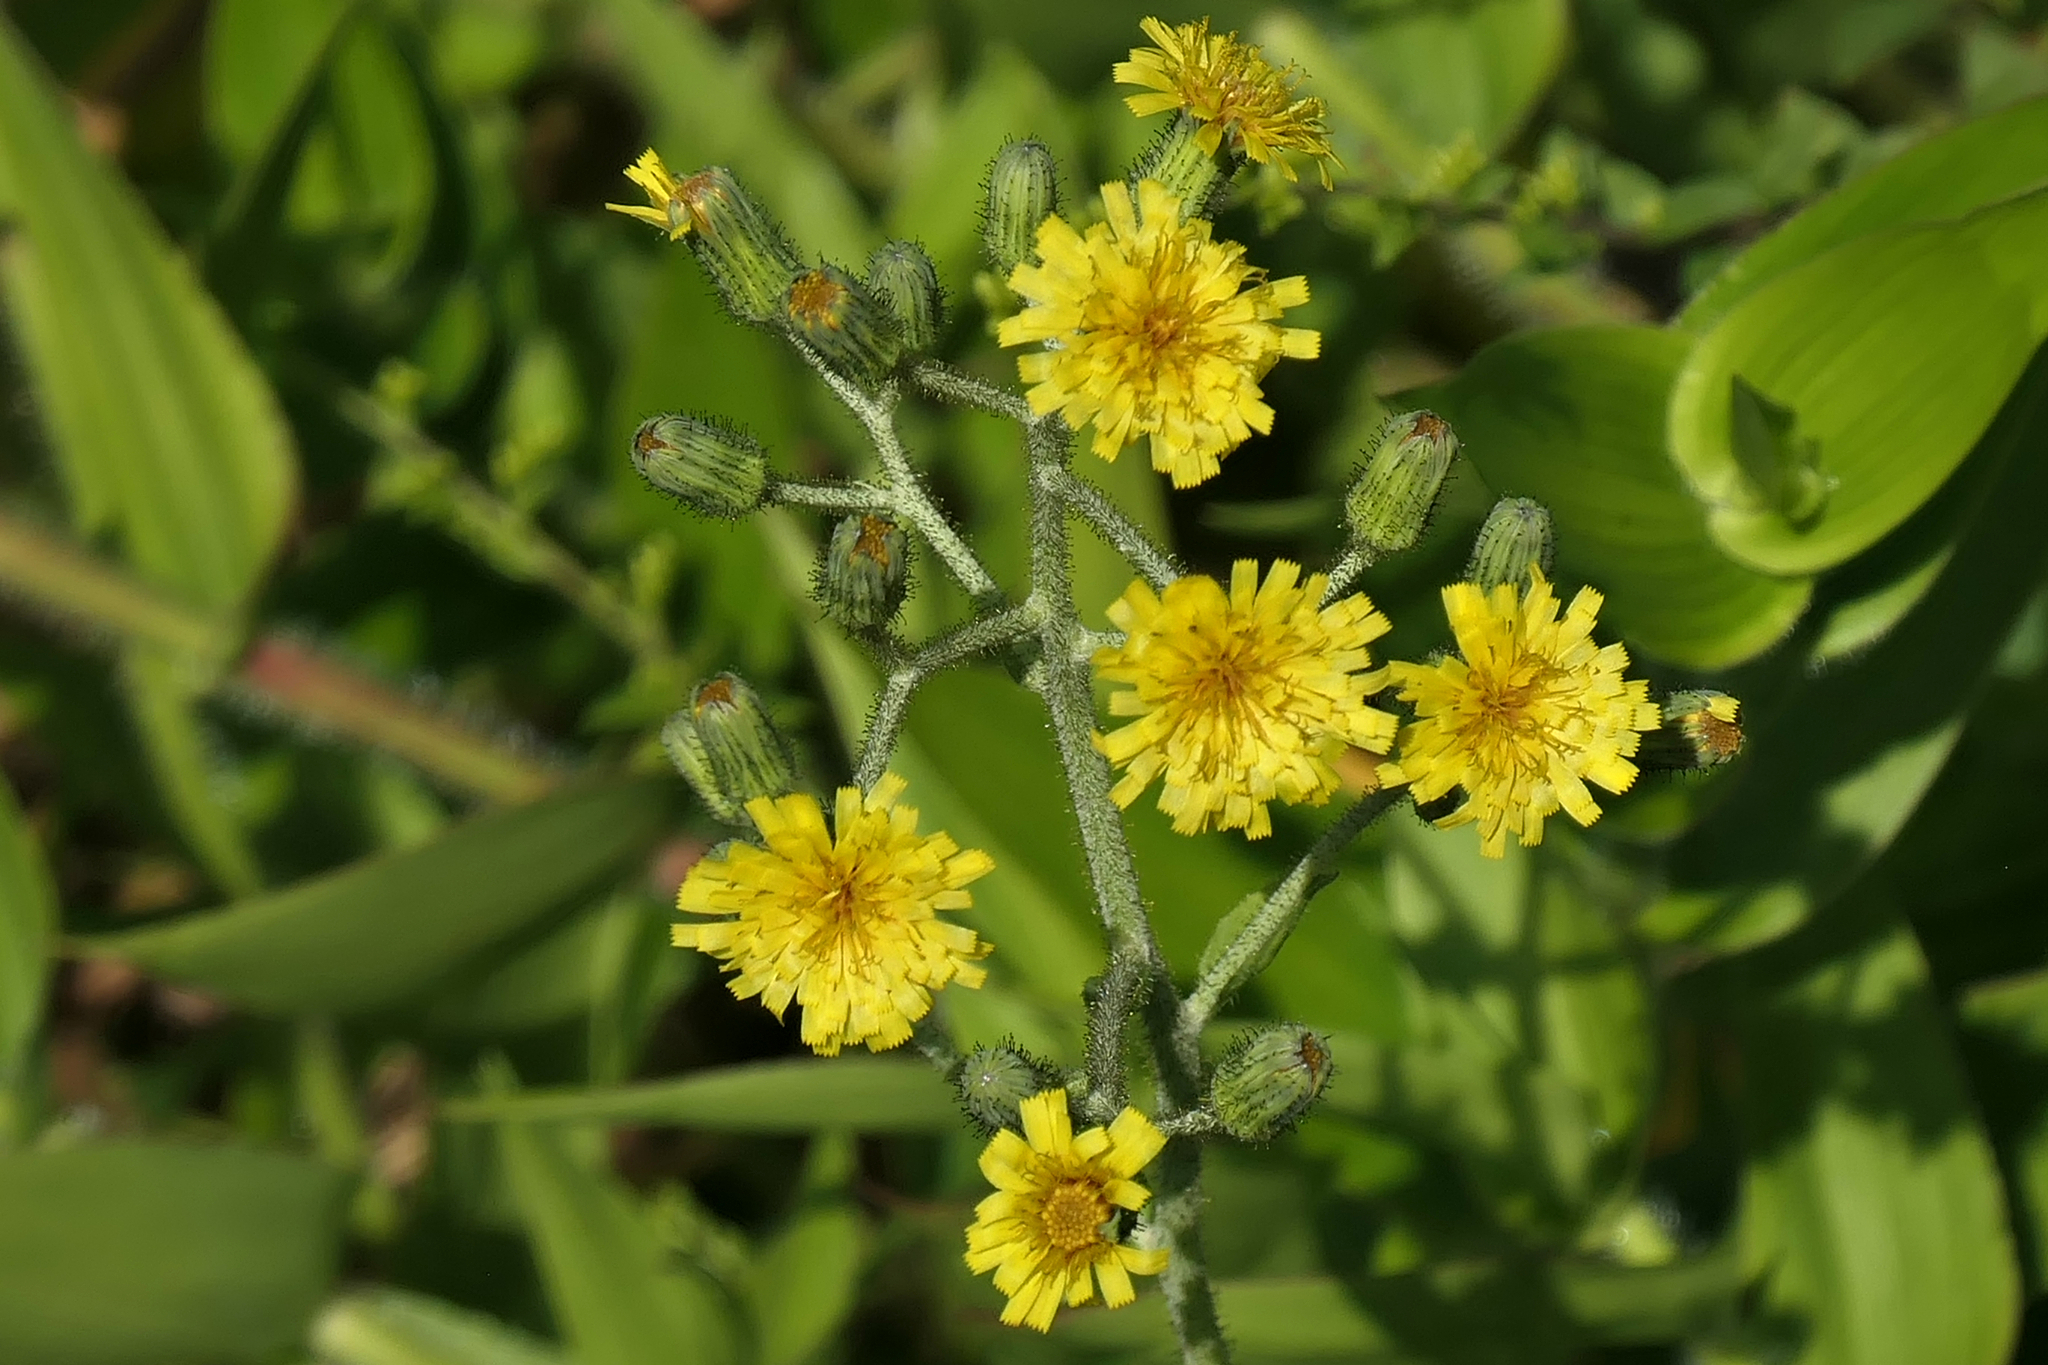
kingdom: Plantae
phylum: Tracheophyta
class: Magnoliopsida
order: Asterales
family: Asteraceae
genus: Hieracium
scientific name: Hieracium scabrum
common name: Rough hawkweed
